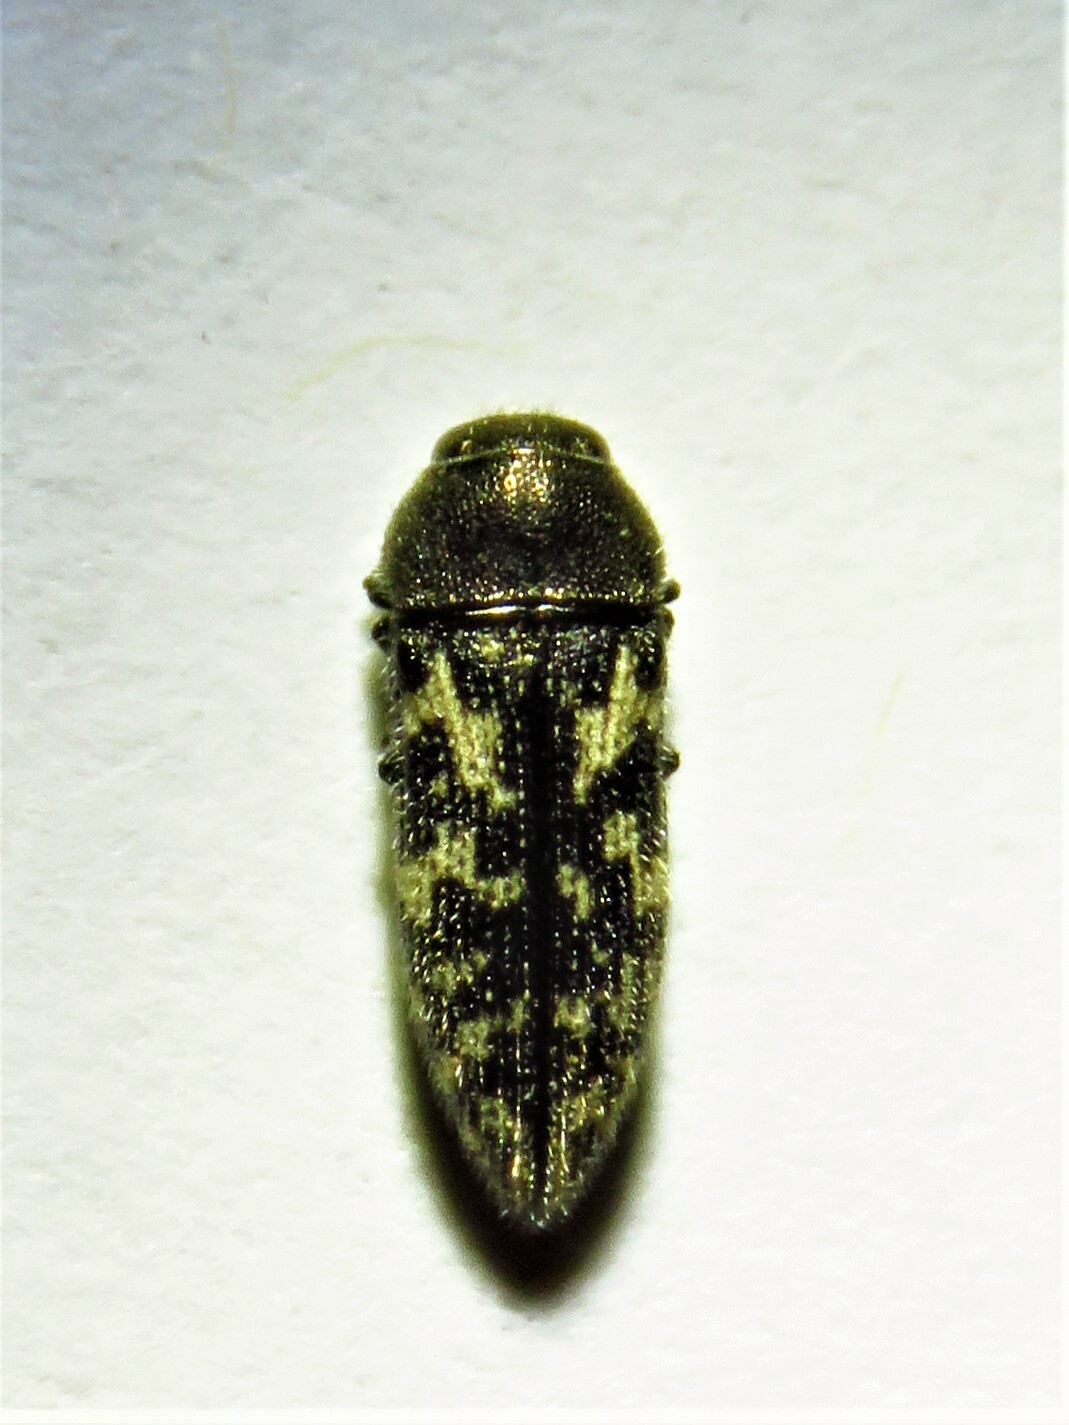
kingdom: Animalia
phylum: Arthropoda
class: Insecta
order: Coleoptera
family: Buprestidae
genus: Acmaeodera
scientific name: Acmaeodera neglecta
